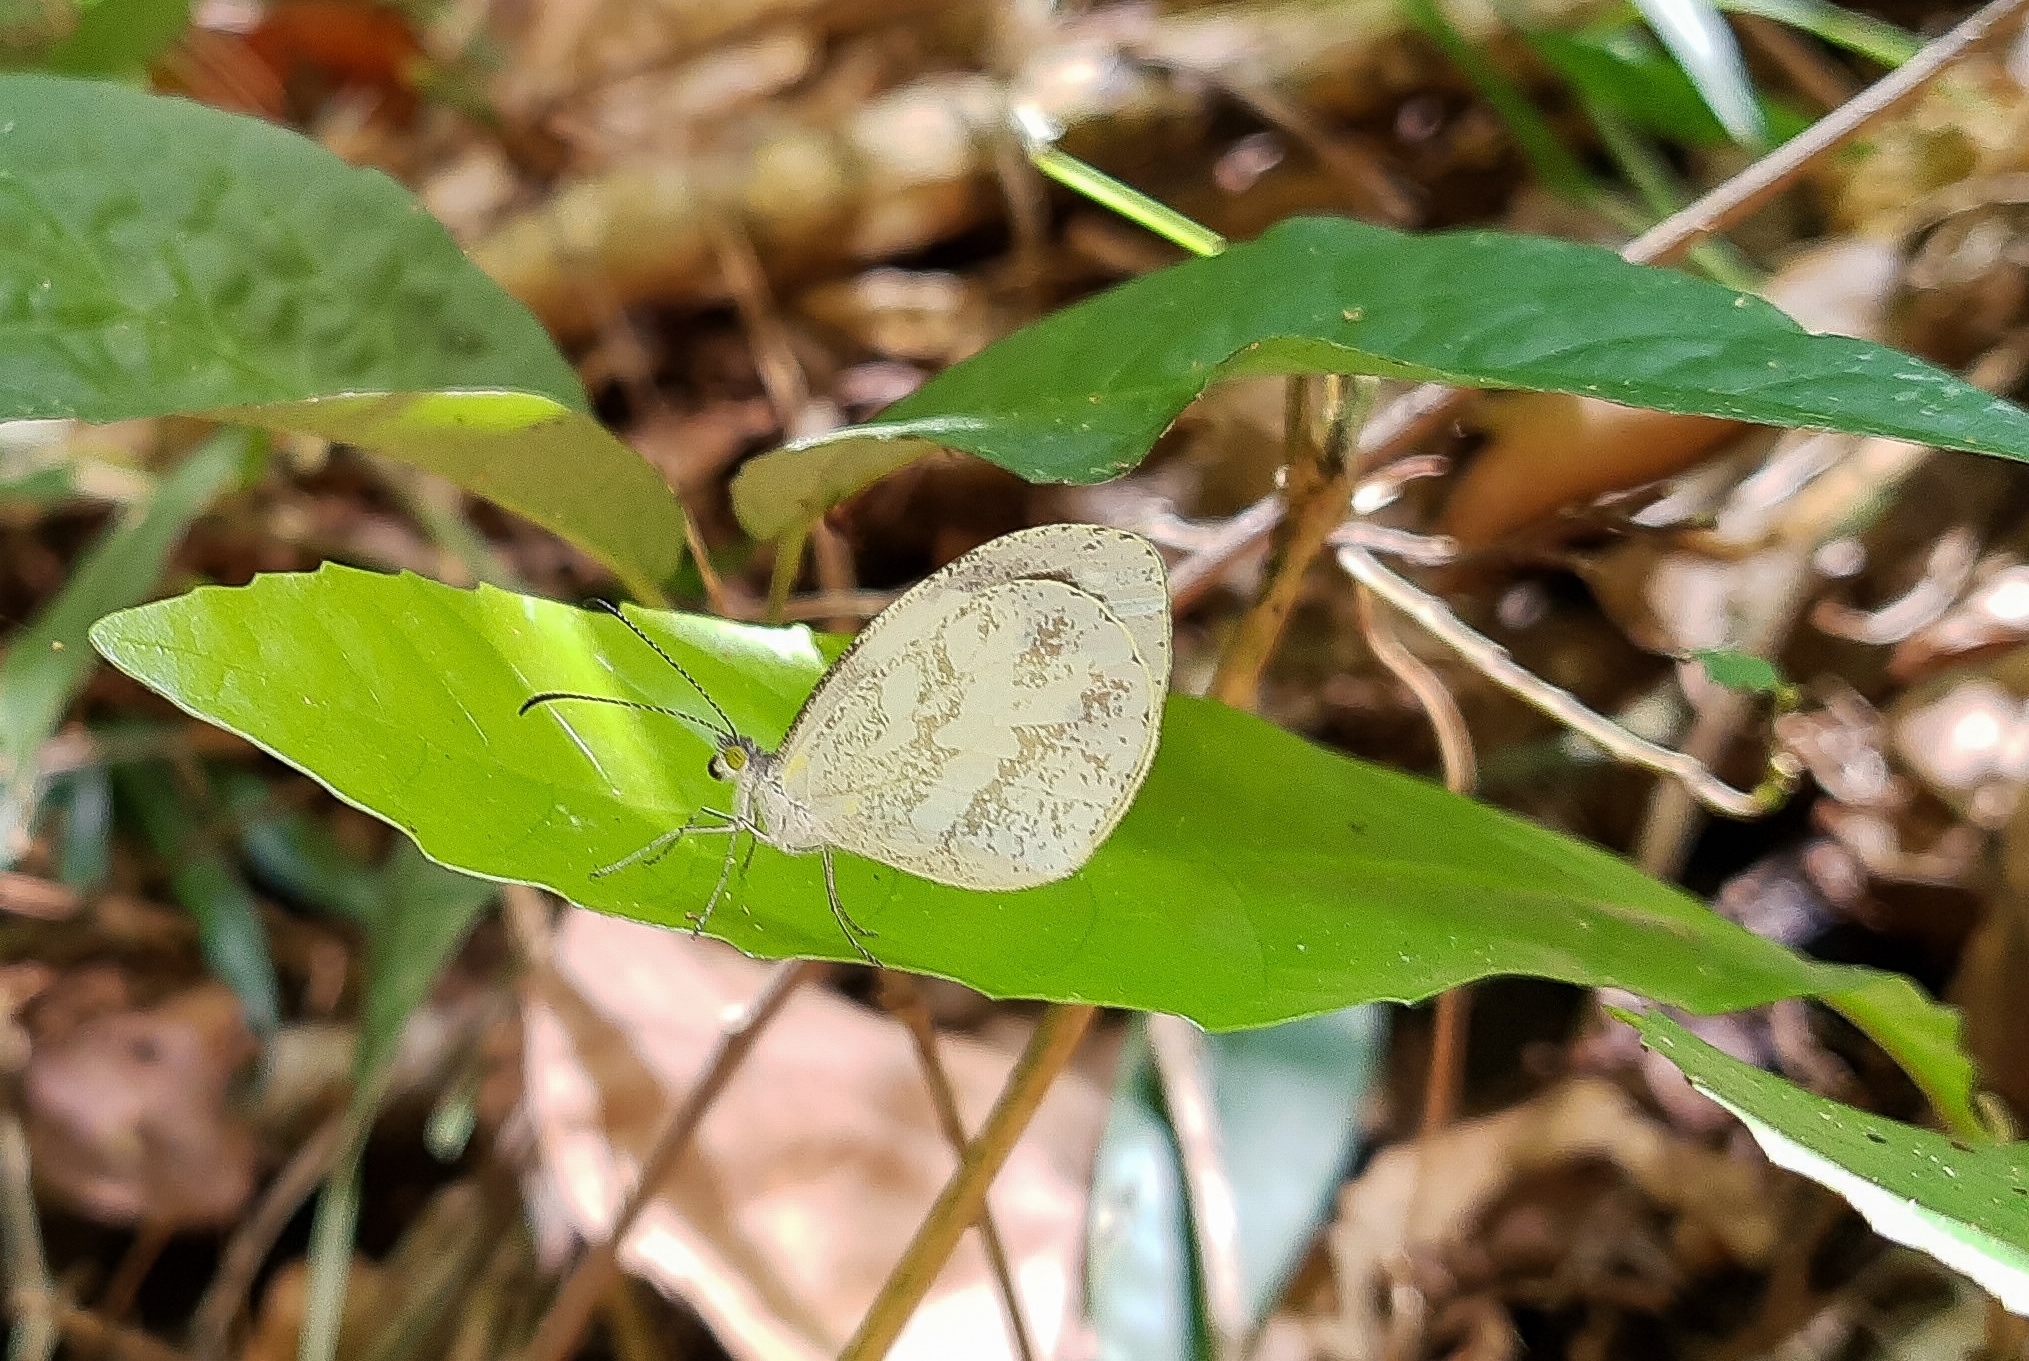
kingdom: Animalia
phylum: Arthropoda
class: Insecta
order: Lepidoptera
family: Pieridae
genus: Dismorphia
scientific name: Dismorphia thermesia
